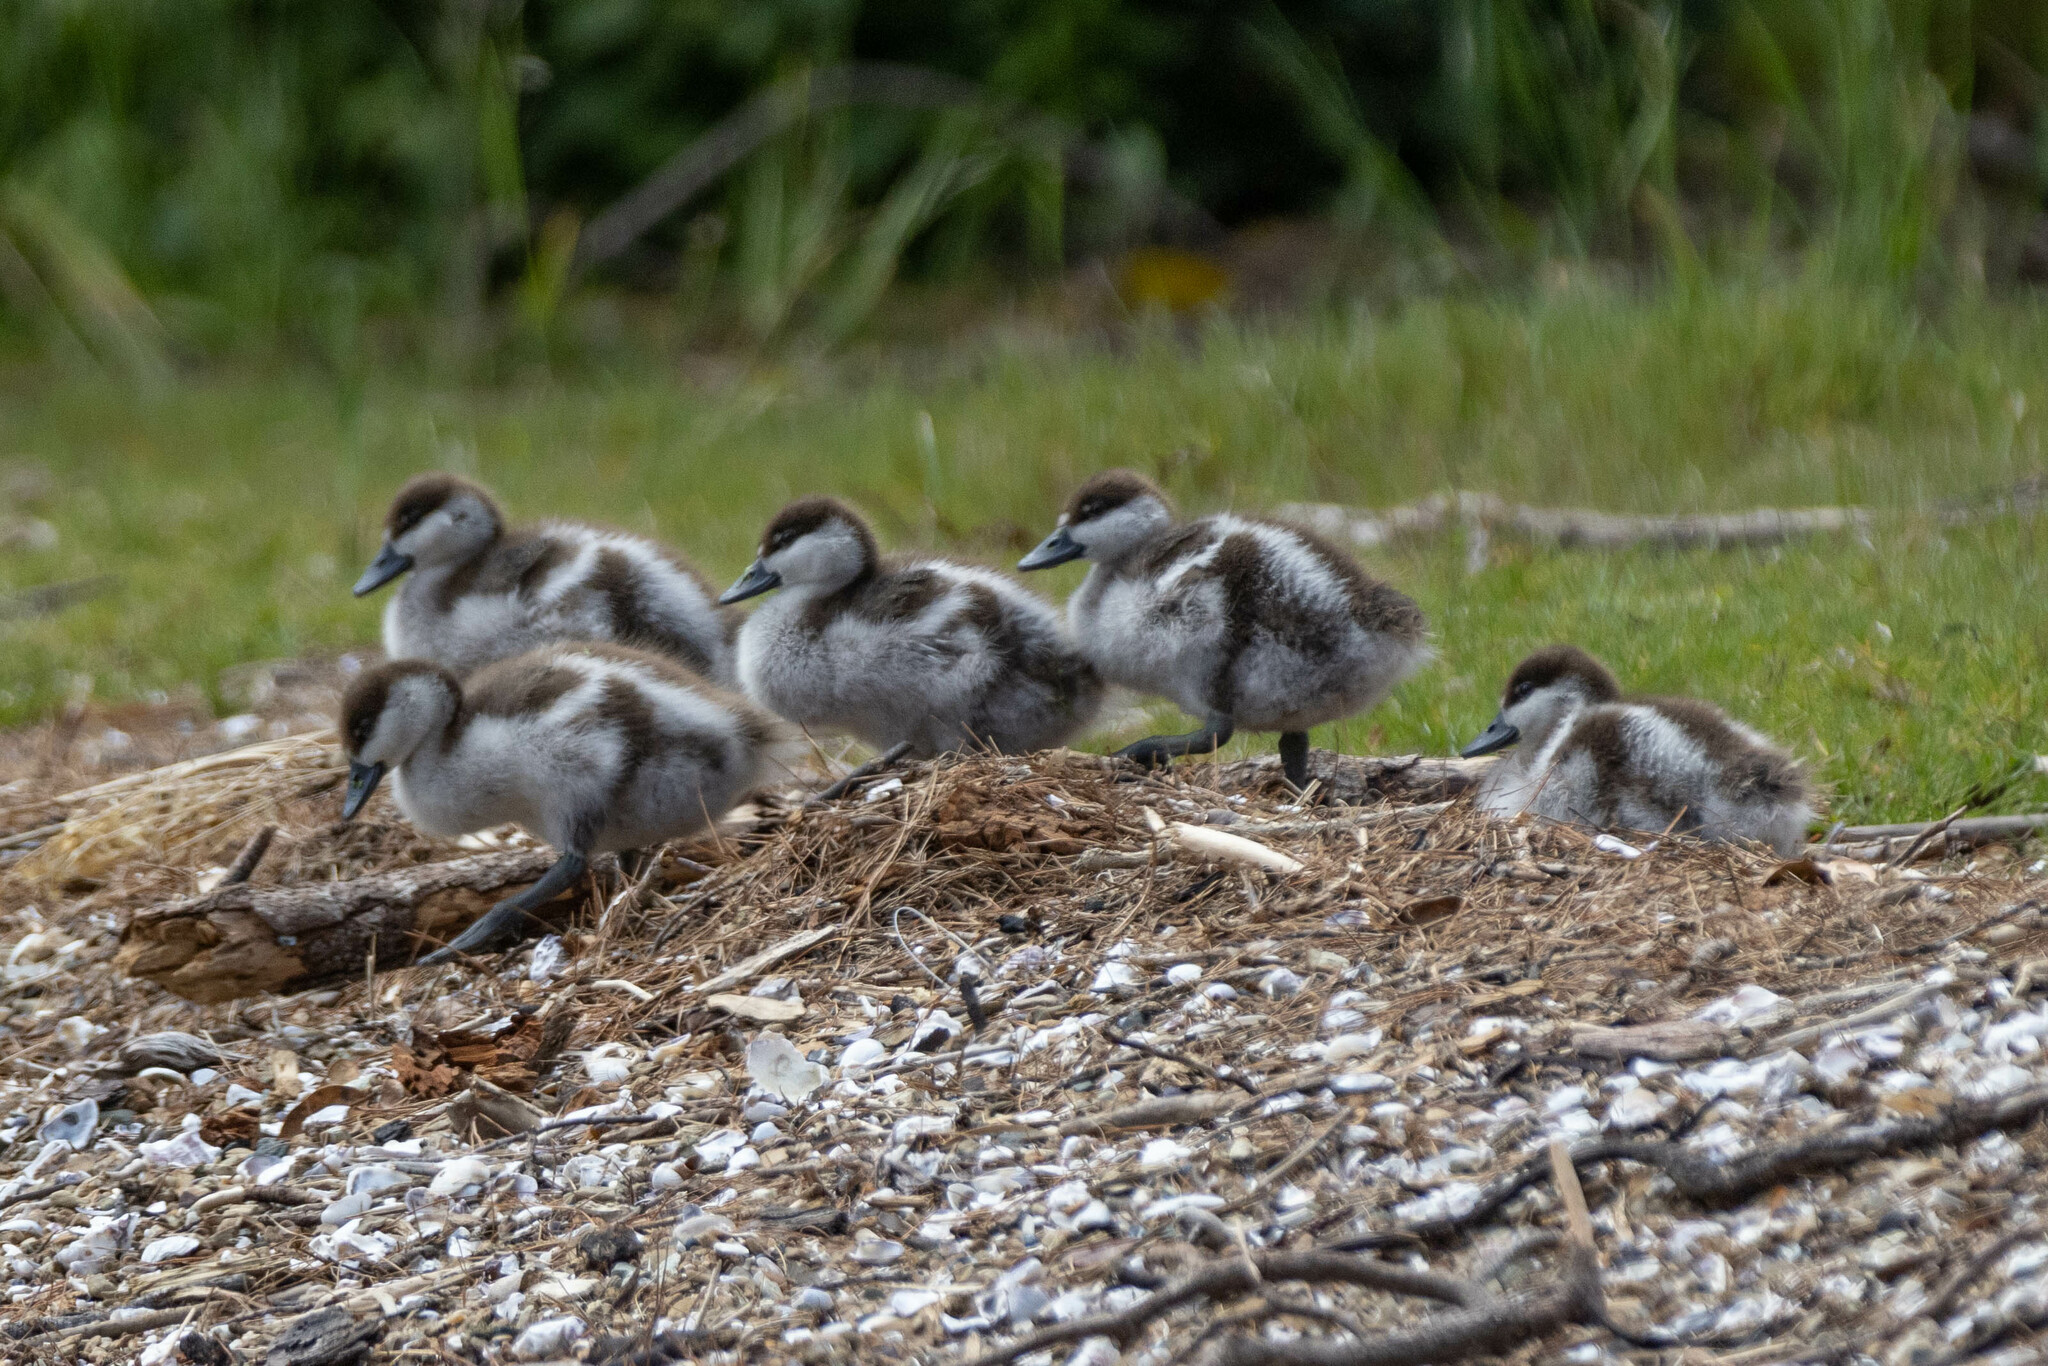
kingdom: Animalia
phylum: Chordata
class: Aves
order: Anseriformes
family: Anatidae
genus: Tadorna
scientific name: Tadorna variegata
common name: Paradise shelduck
